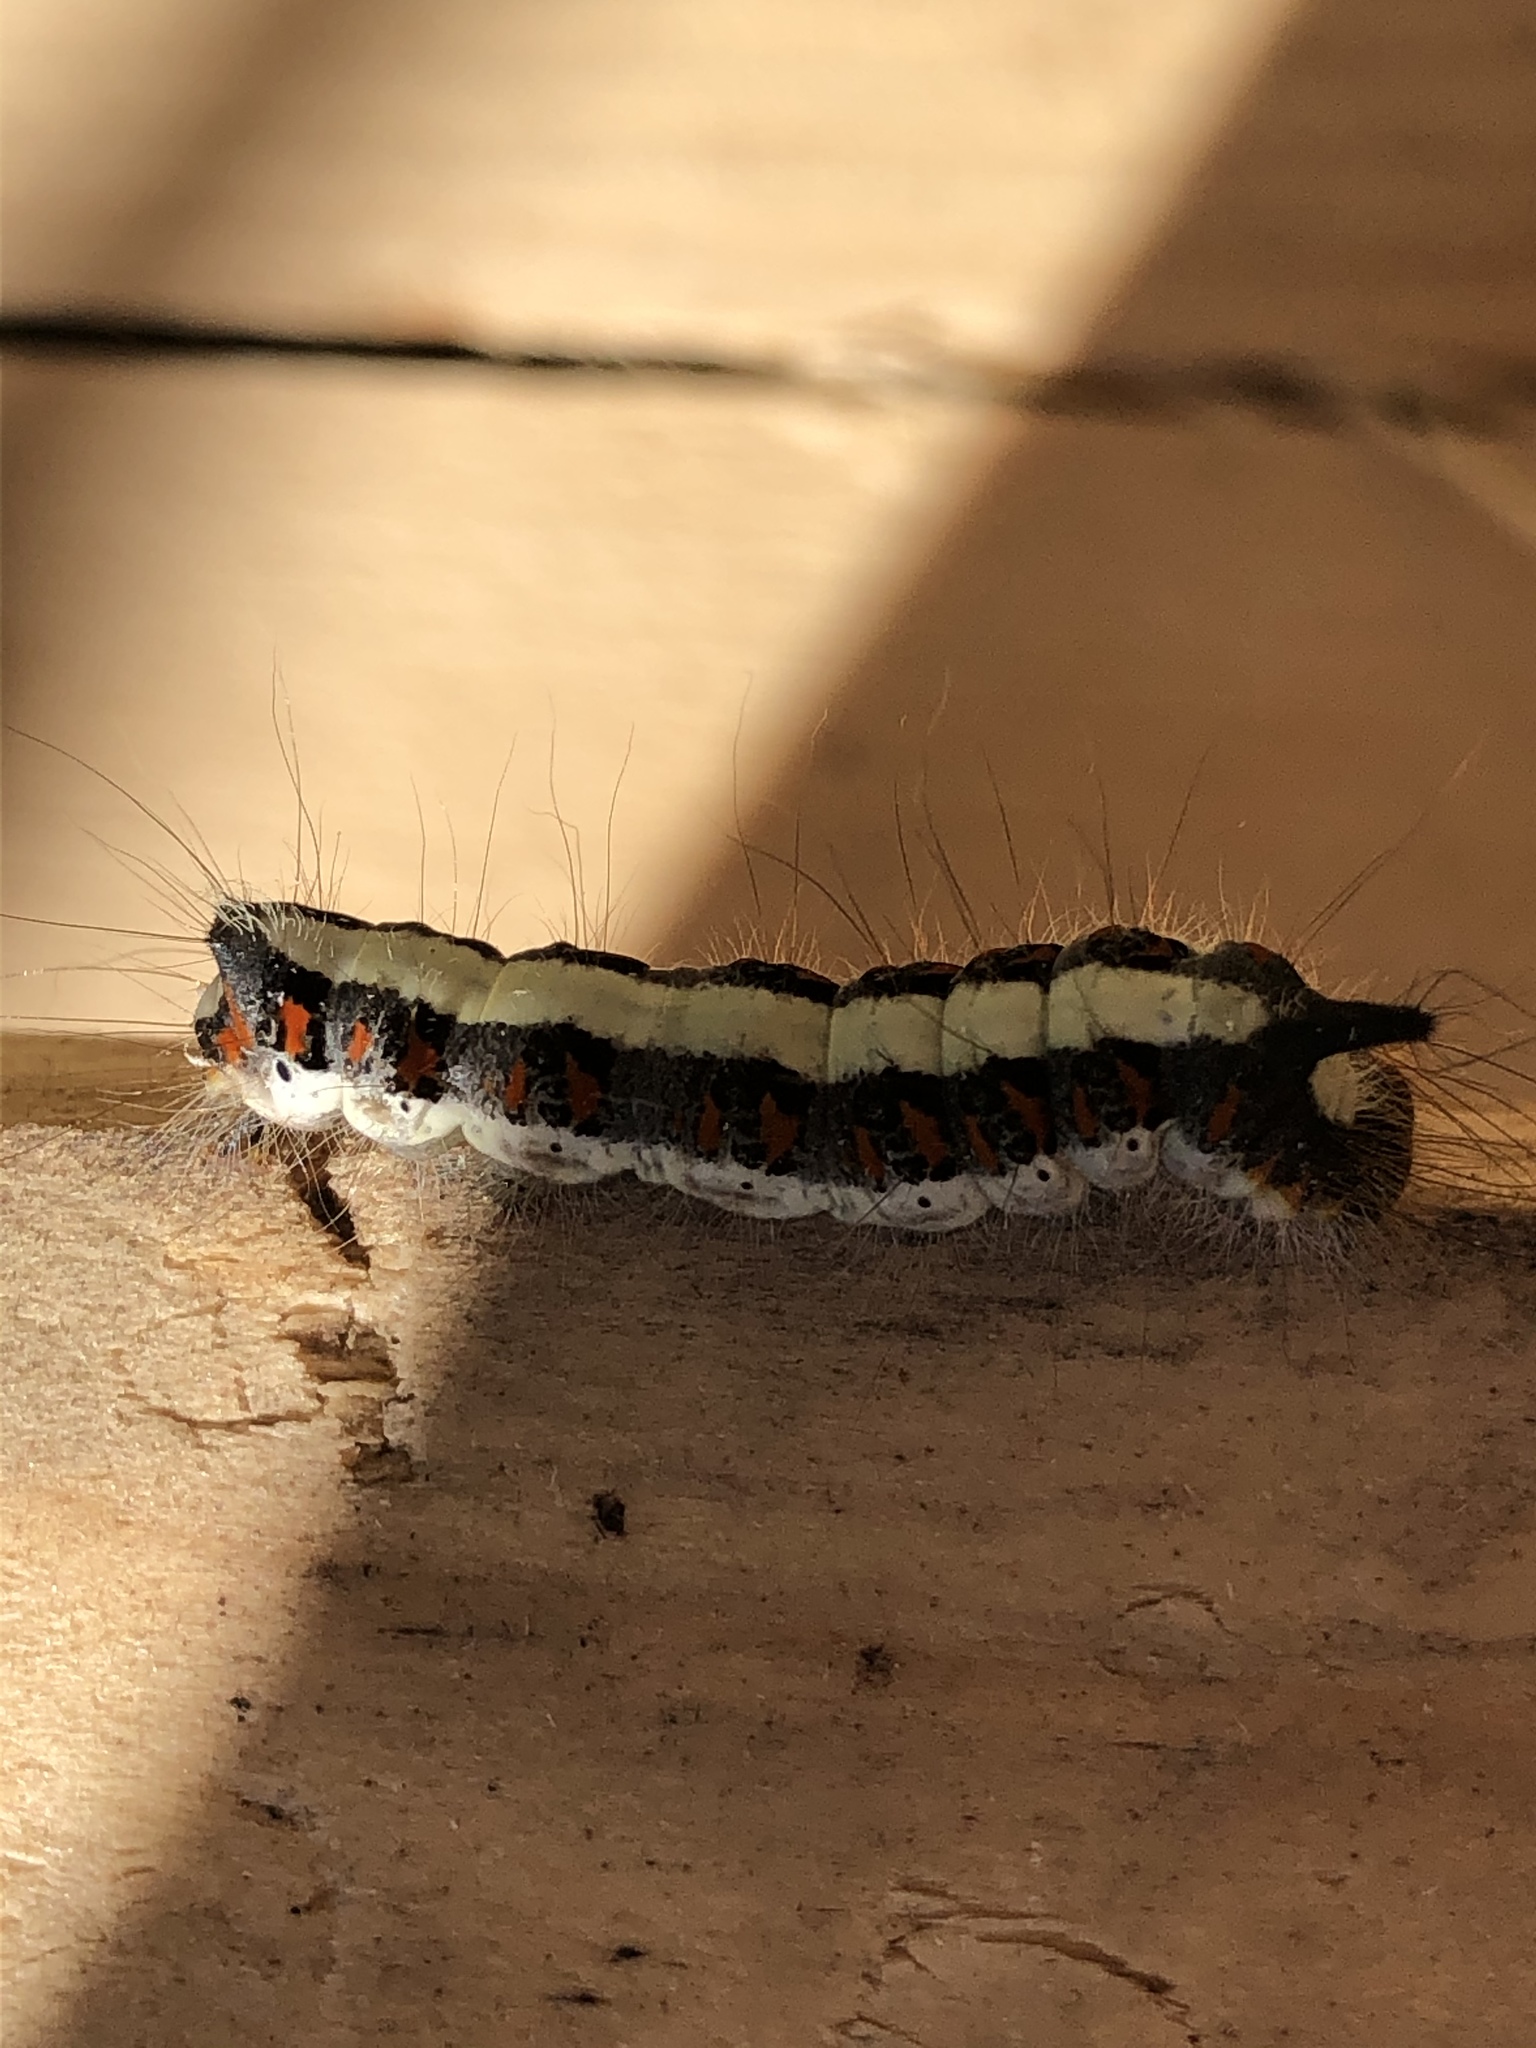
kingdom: Animalia
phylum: Arthropoda
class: Insecta
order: Lepidoptera
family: Noctuidae
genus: Acronicta
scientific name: Acronicta psi
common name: Grey dagger
